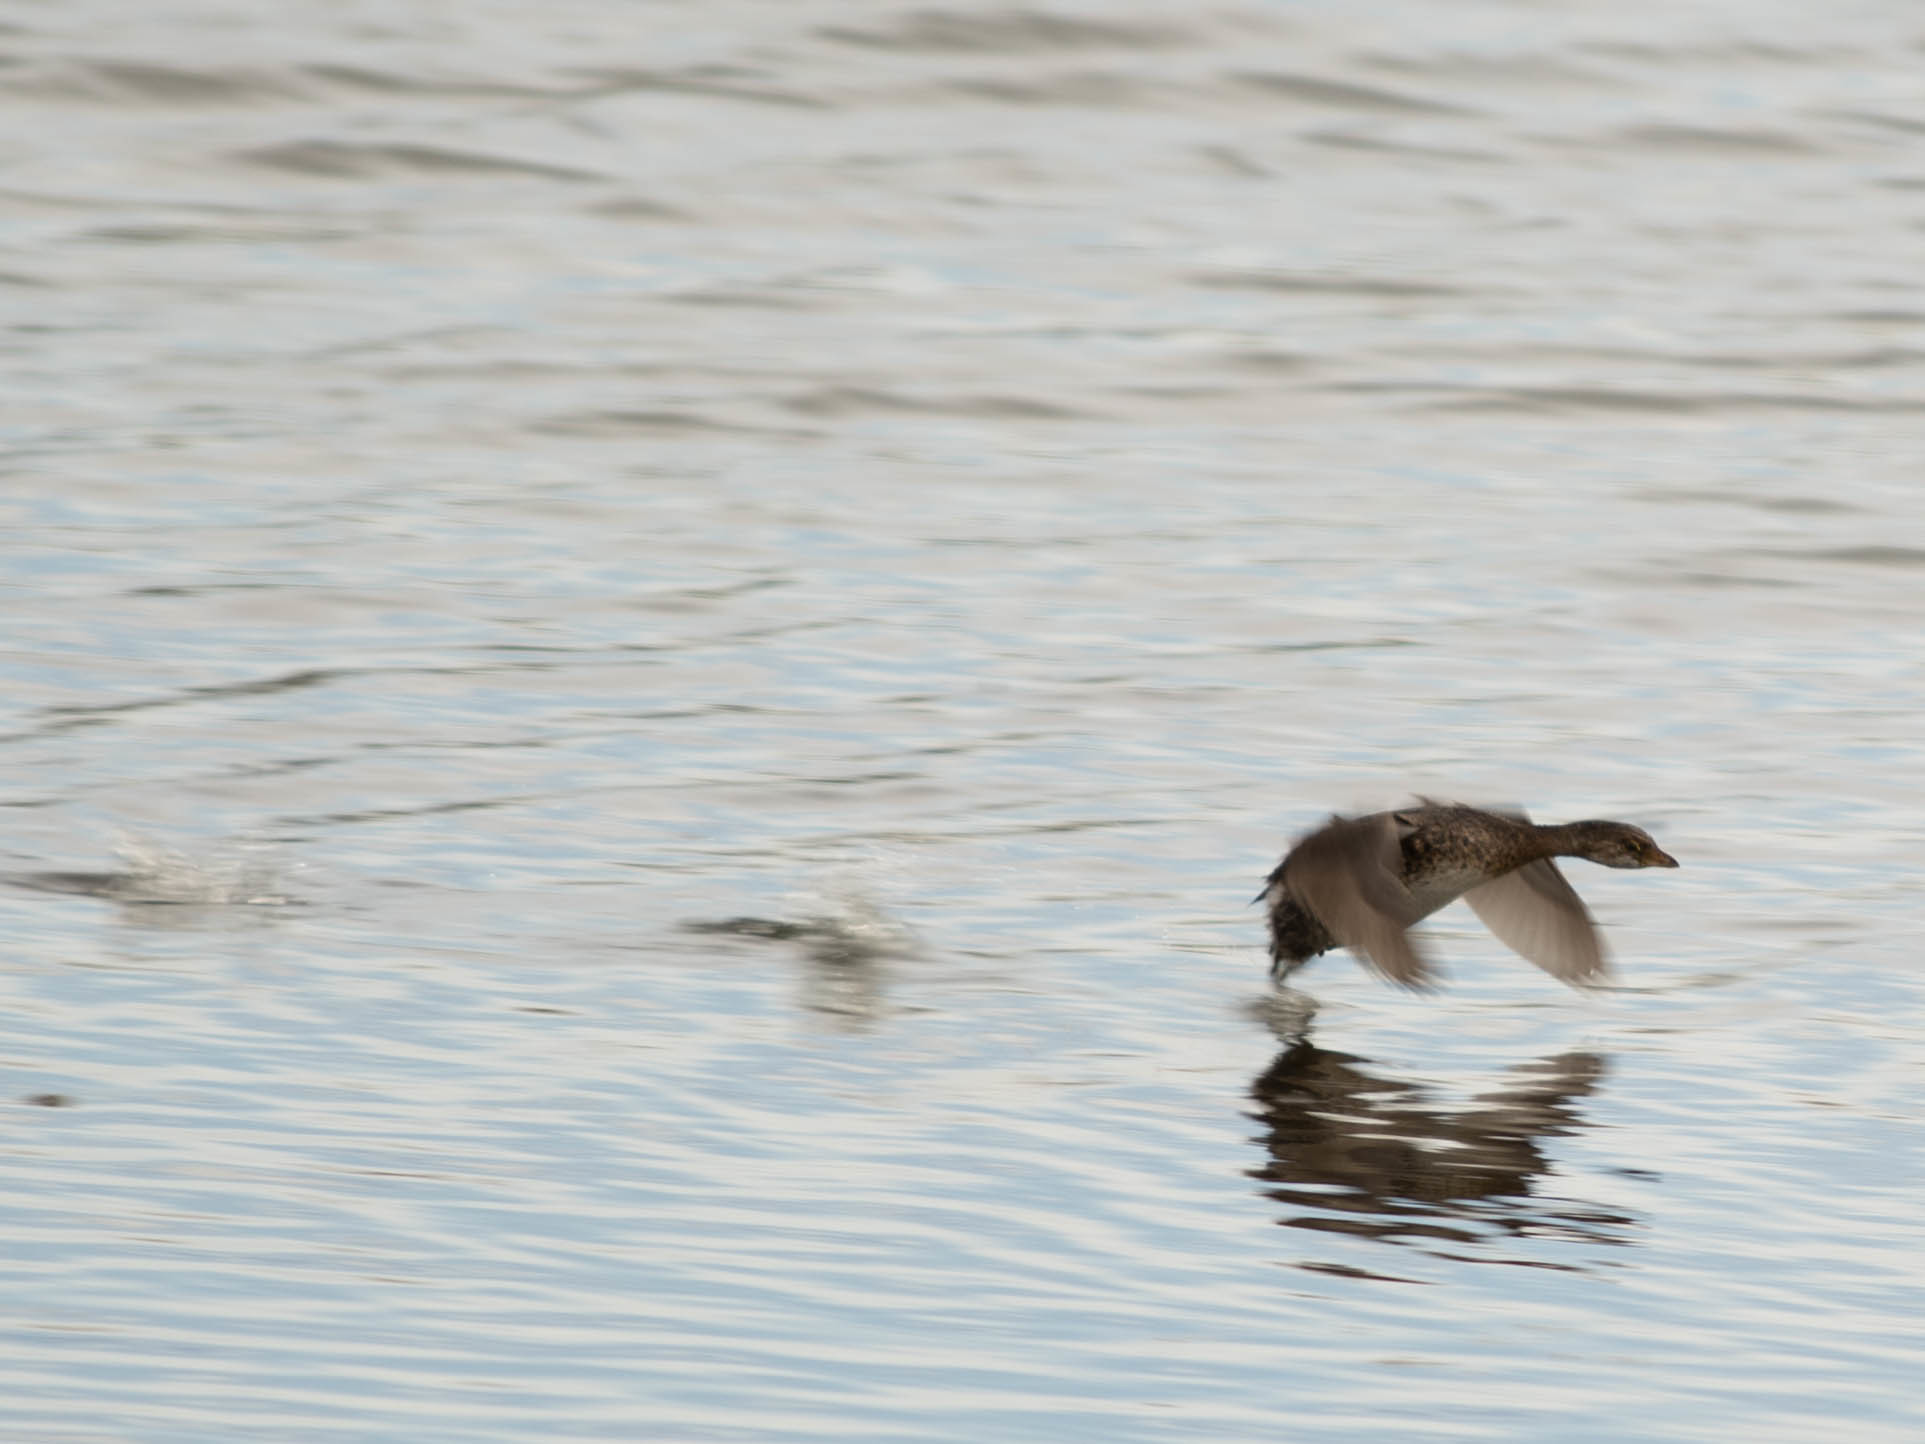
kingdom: Animalia
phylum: Chordata
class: Aves
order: Podicipediformes
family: Podicipedidae
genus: Podilymbus
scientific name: Podilymbus podiceps
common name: Pied-billed grebe
